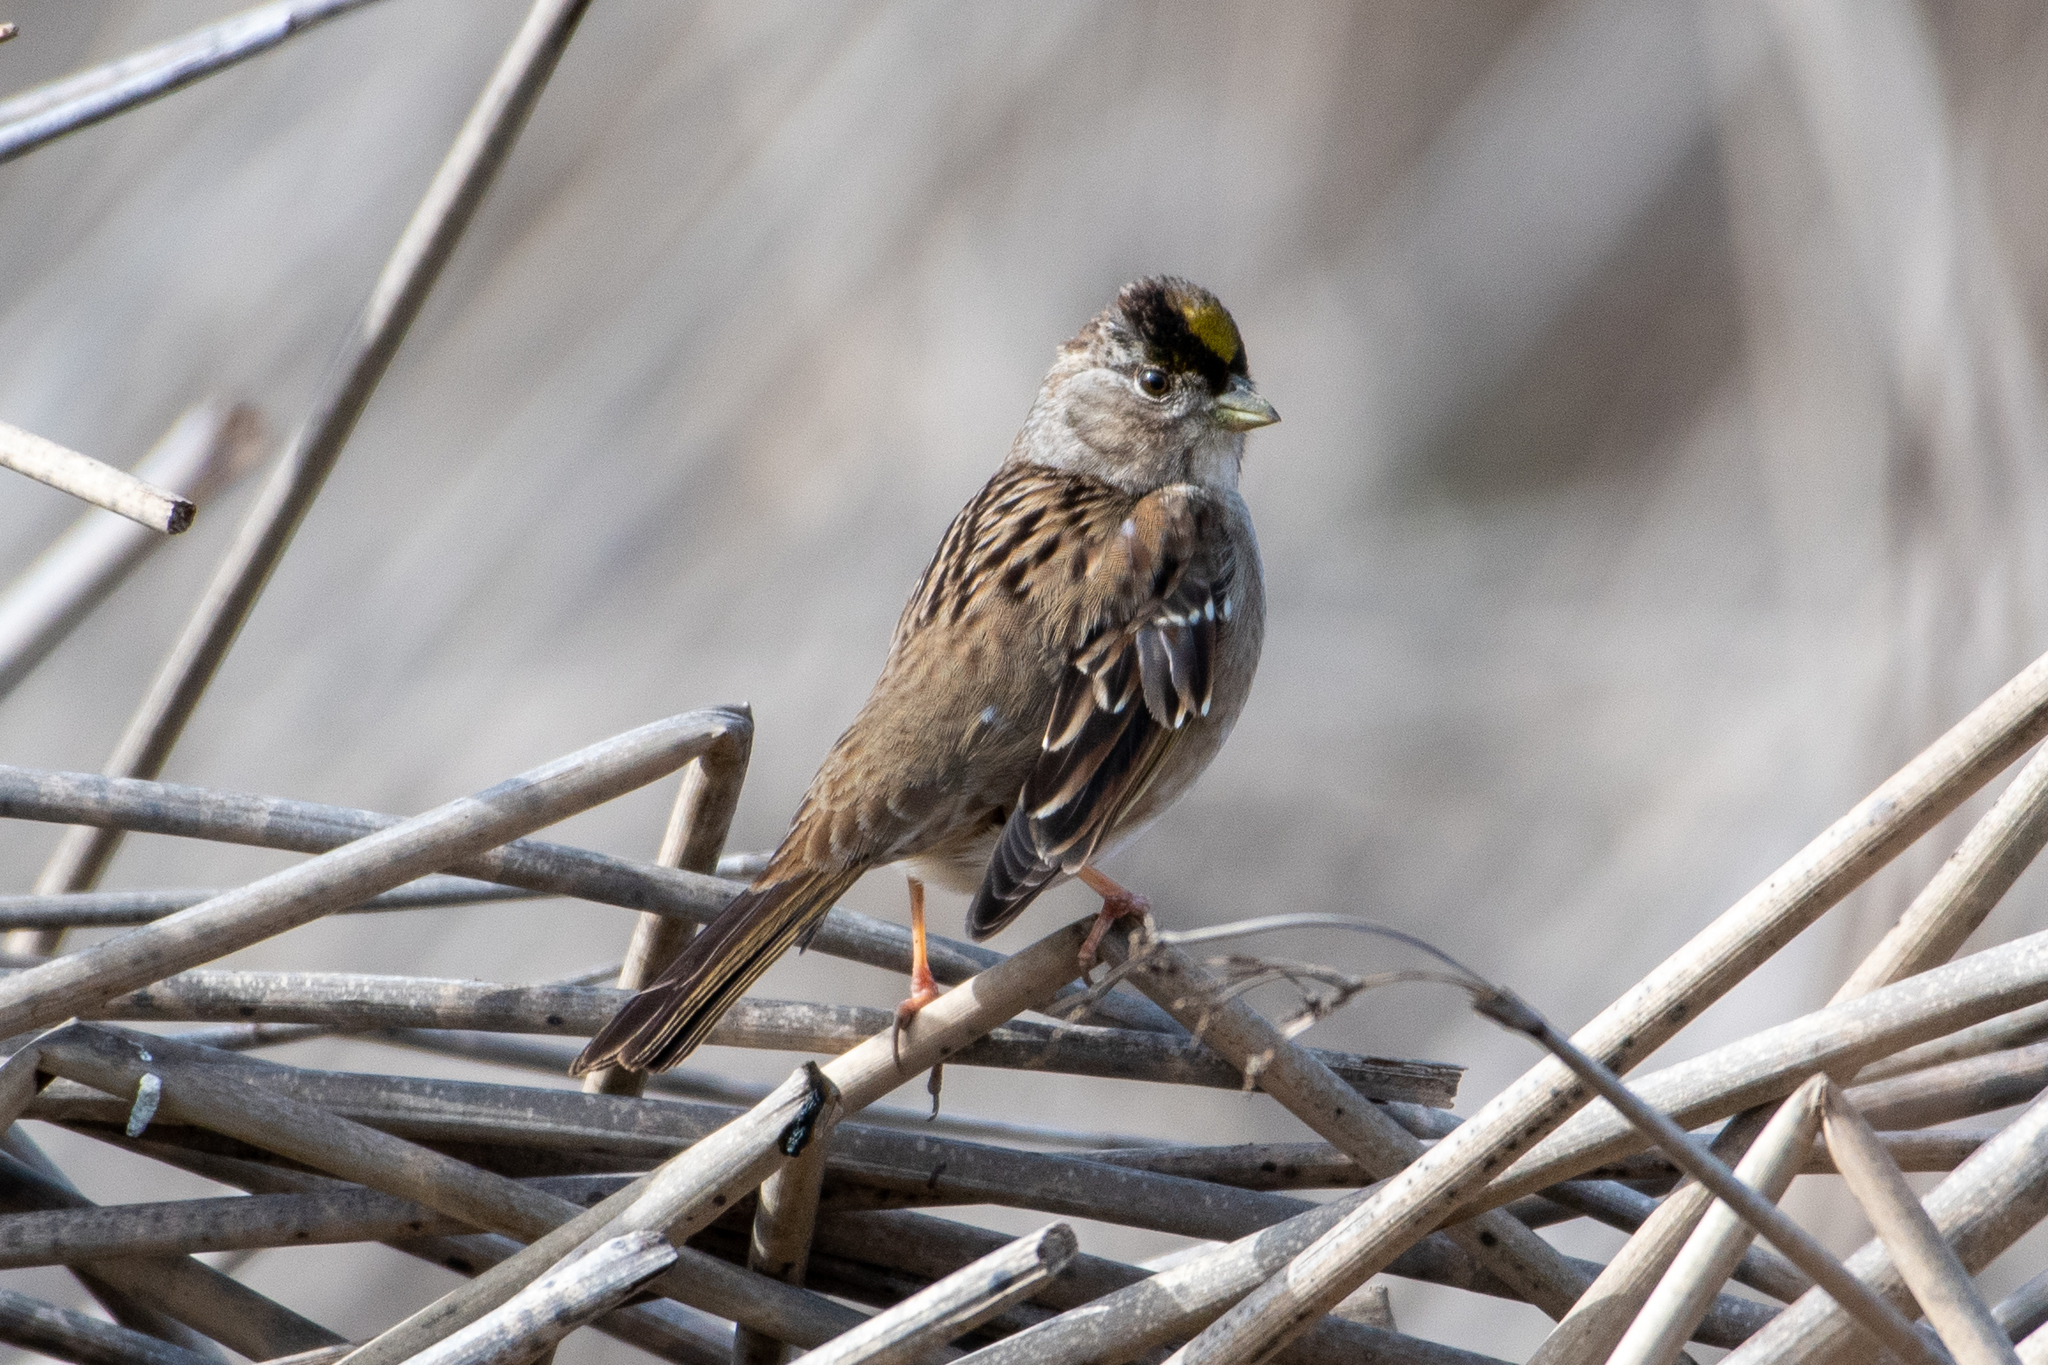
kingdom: Animalia
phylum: Chordata
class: Aves
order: Passeriformes
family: Passerellidae
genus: Zonotrichia
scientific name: Zonotrichia atricapilla
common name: Golden-crowned sparrow
